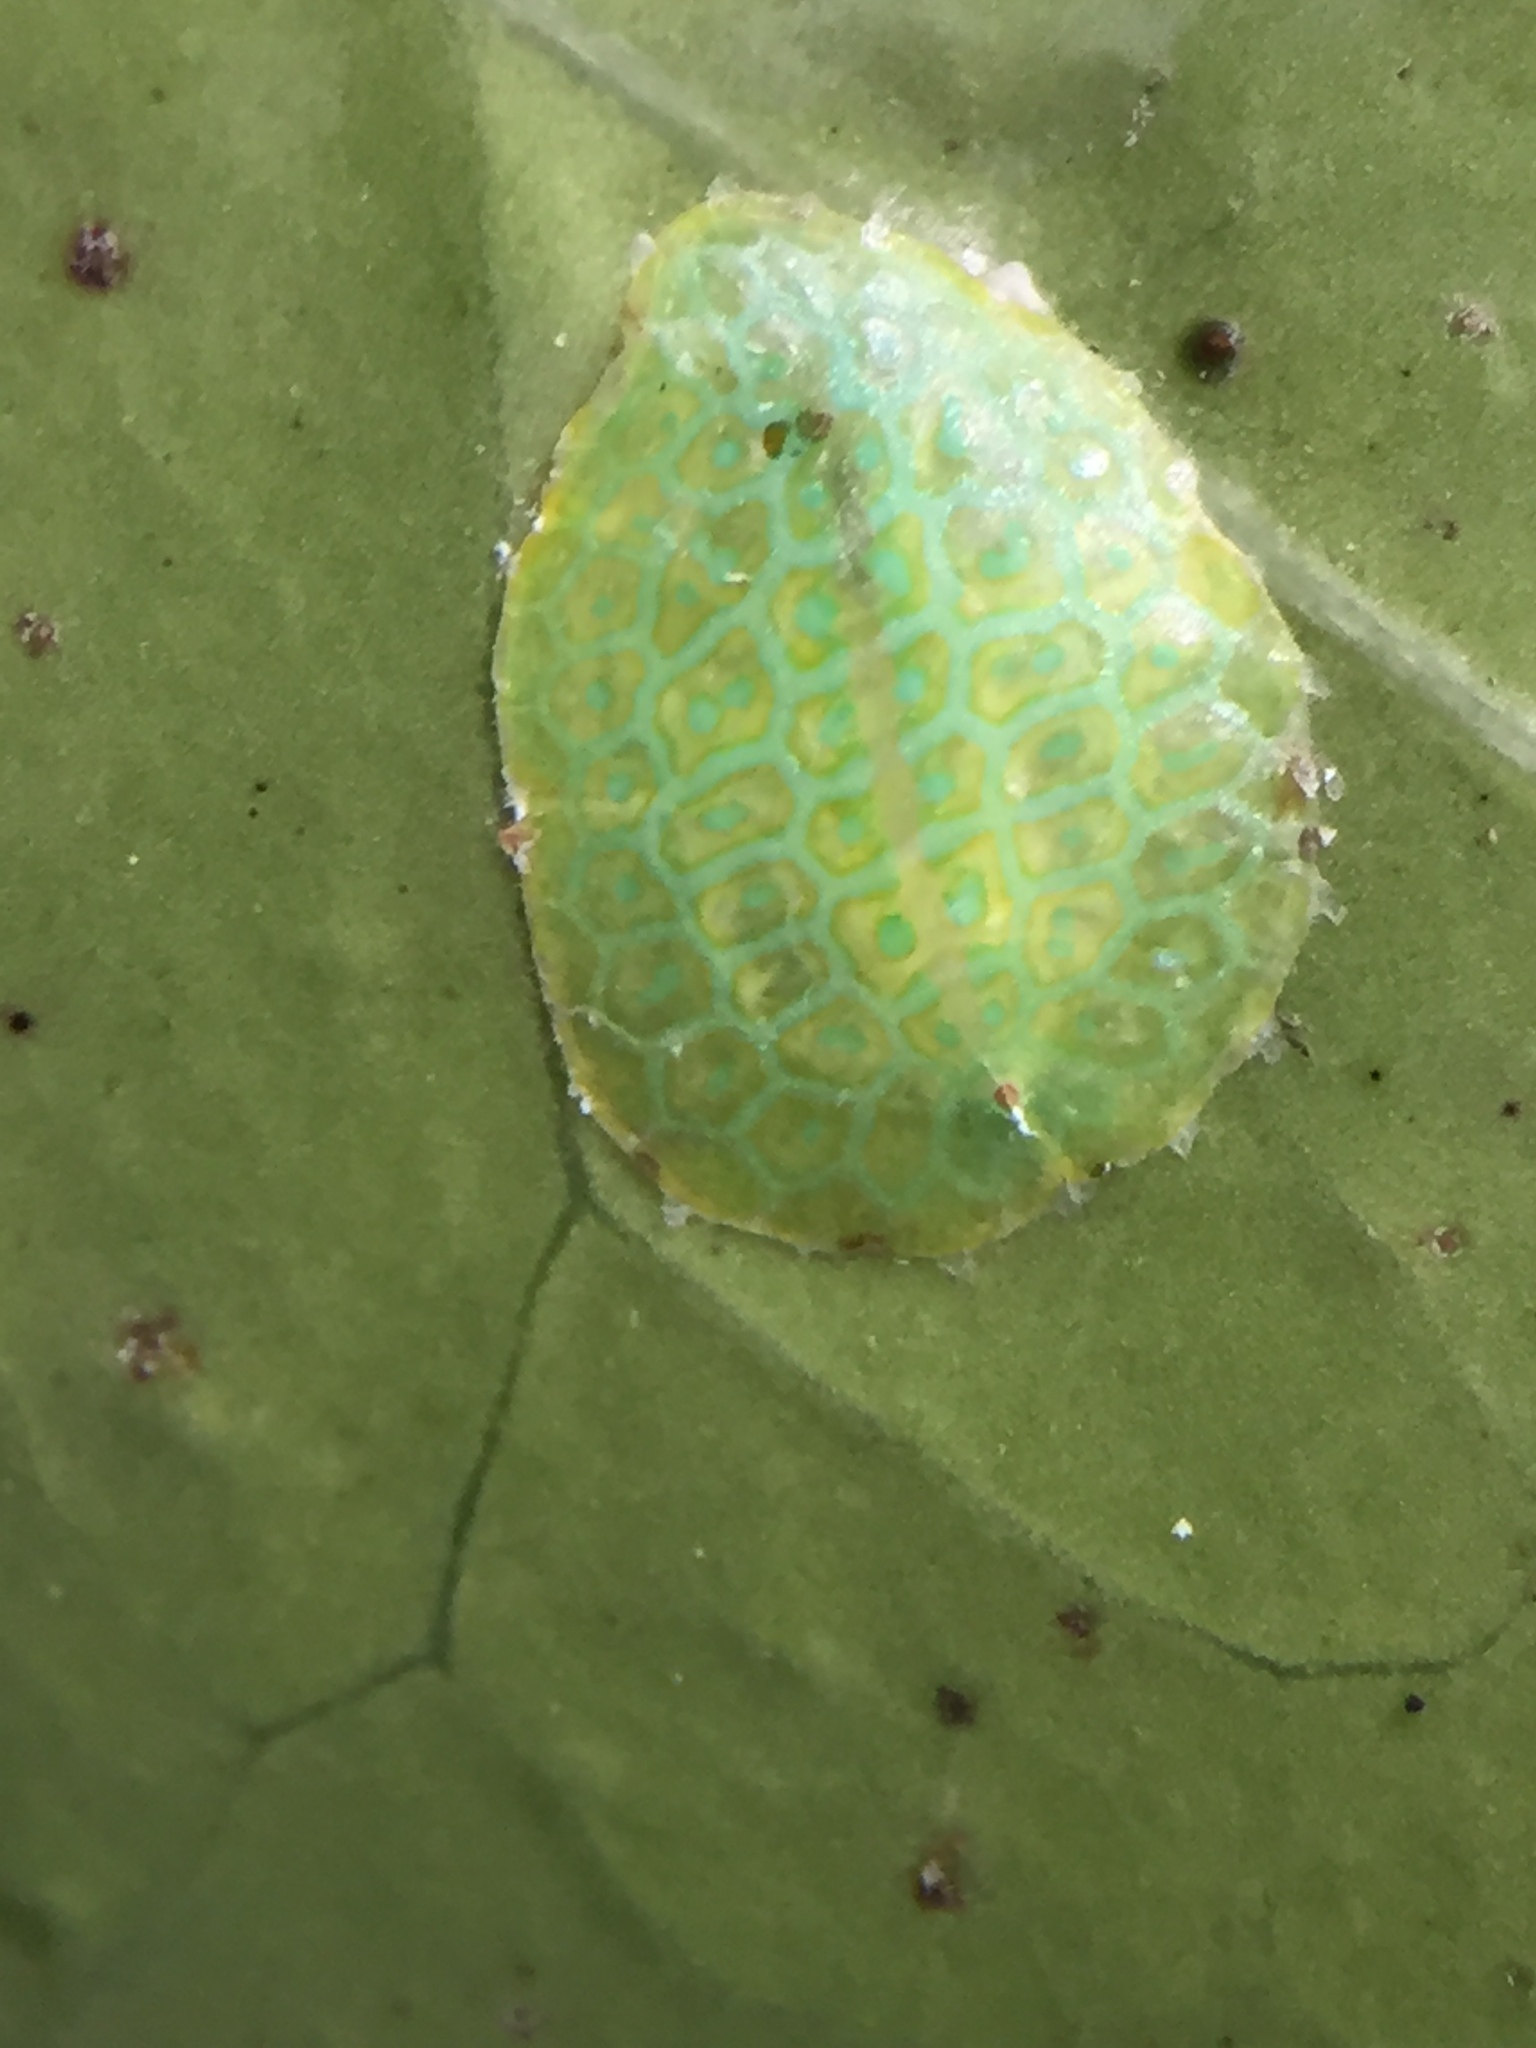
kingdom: Animalia
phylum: Arthropoda
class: Insecta
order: Hemiptera
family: Coccidae
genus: Ctenochiton
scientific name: Ctenochiton chelyon
